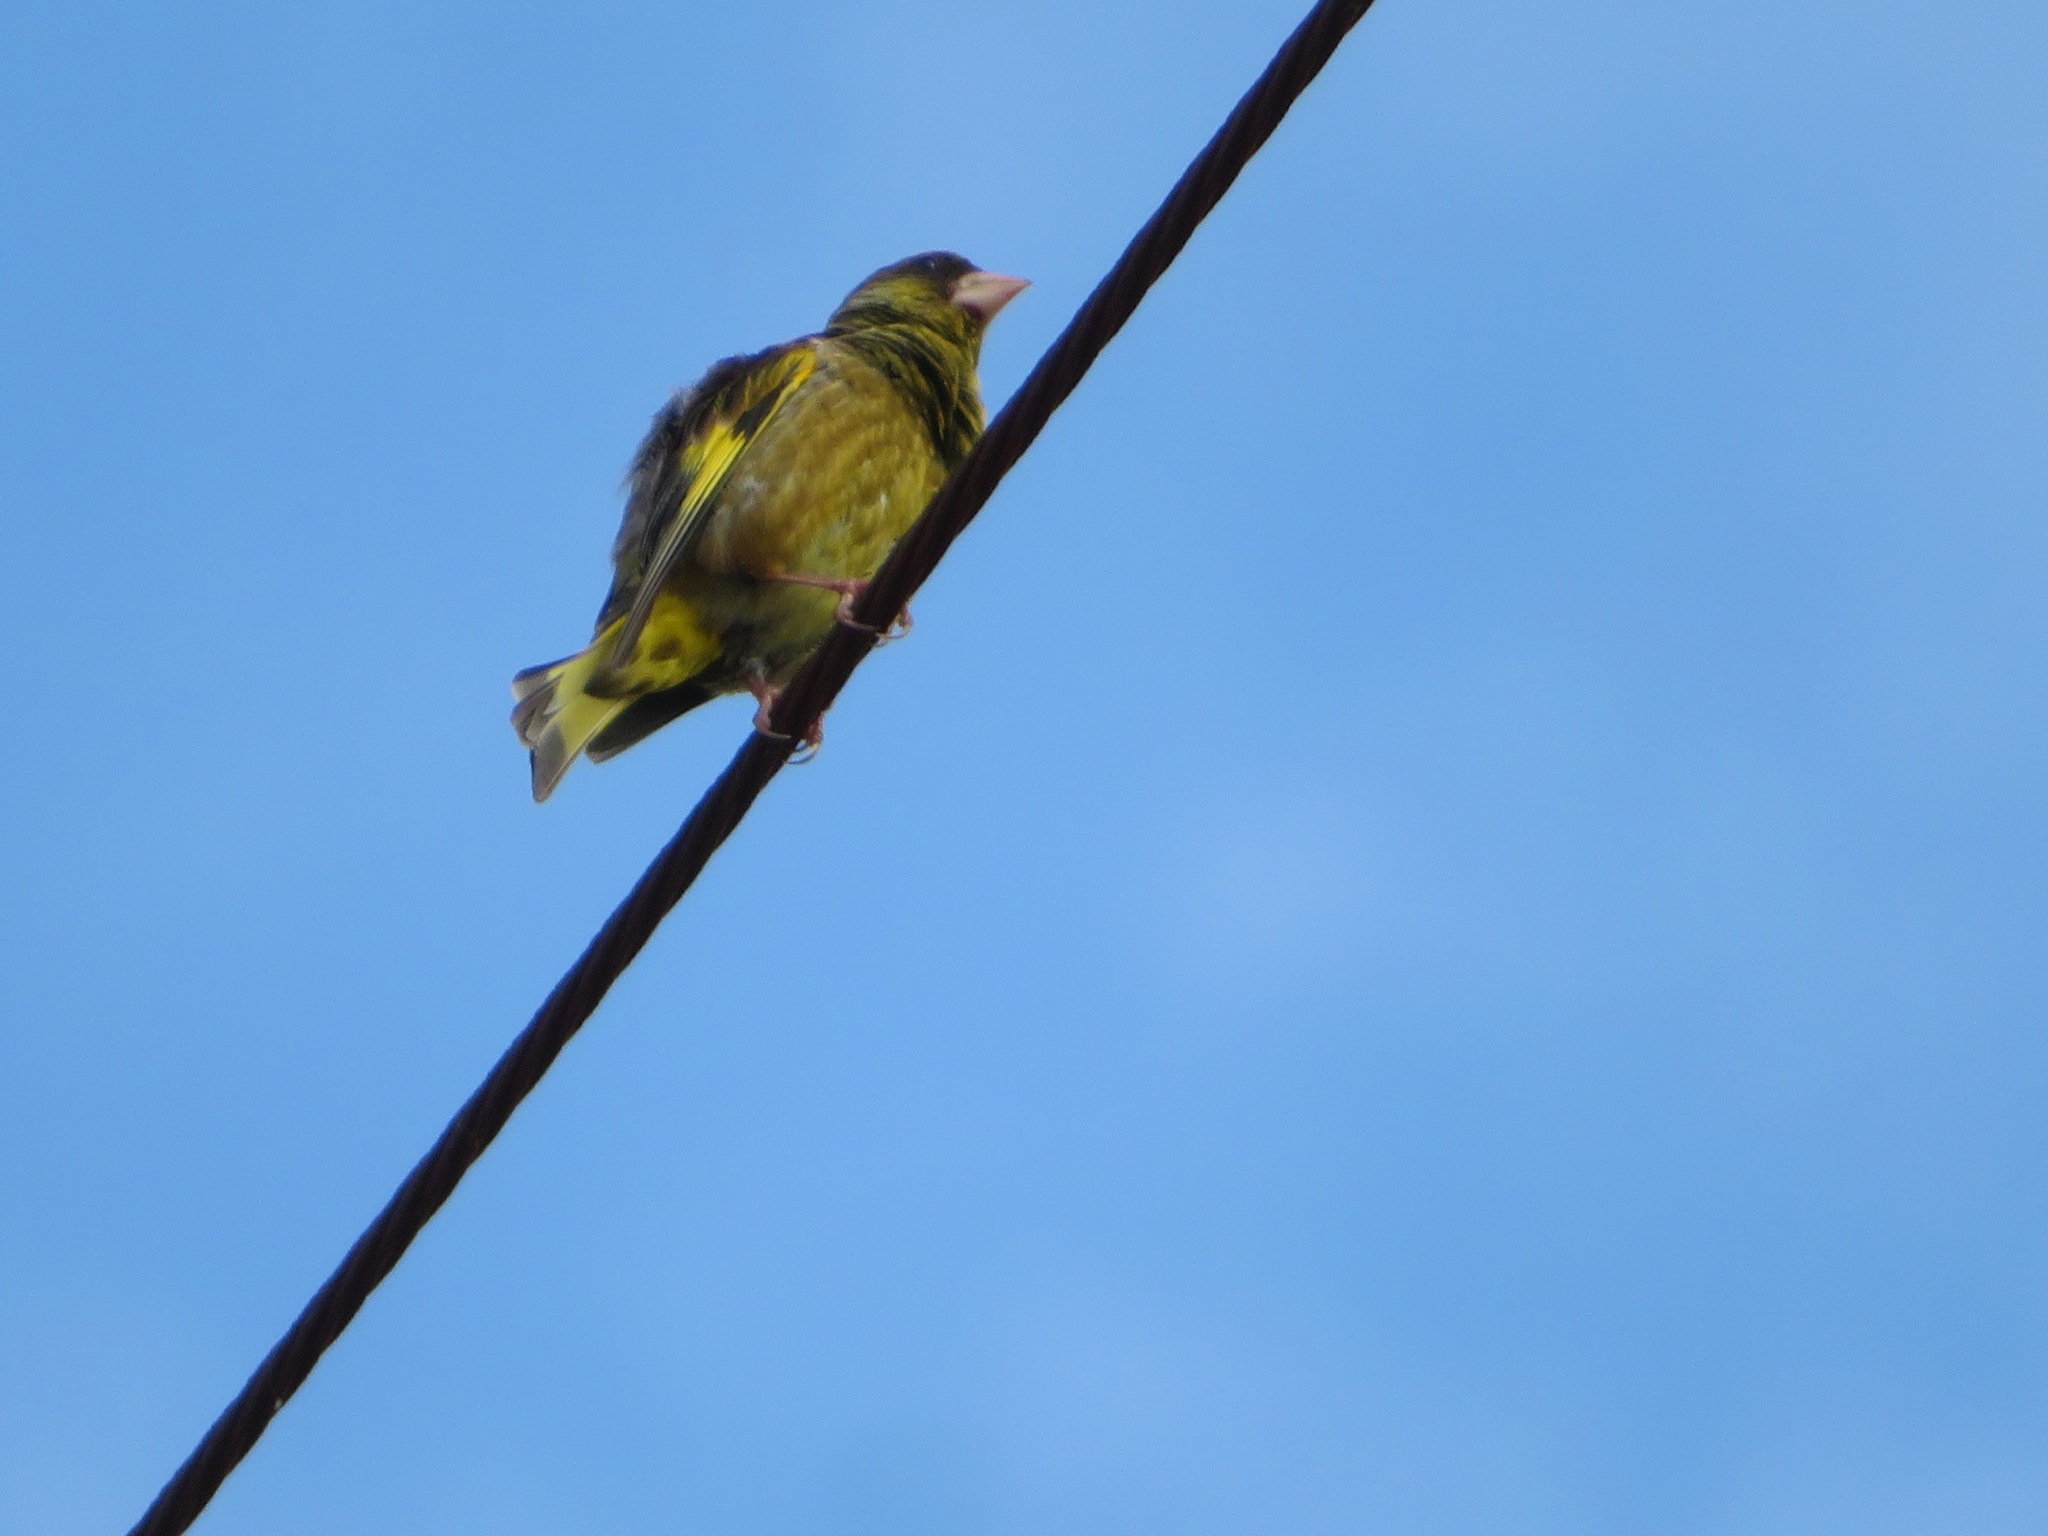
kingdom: Plantae
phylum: Tracheophyta
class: Liliopsida
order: Poales
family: Poaceae
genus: Chloris
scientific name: Chloris sinica
